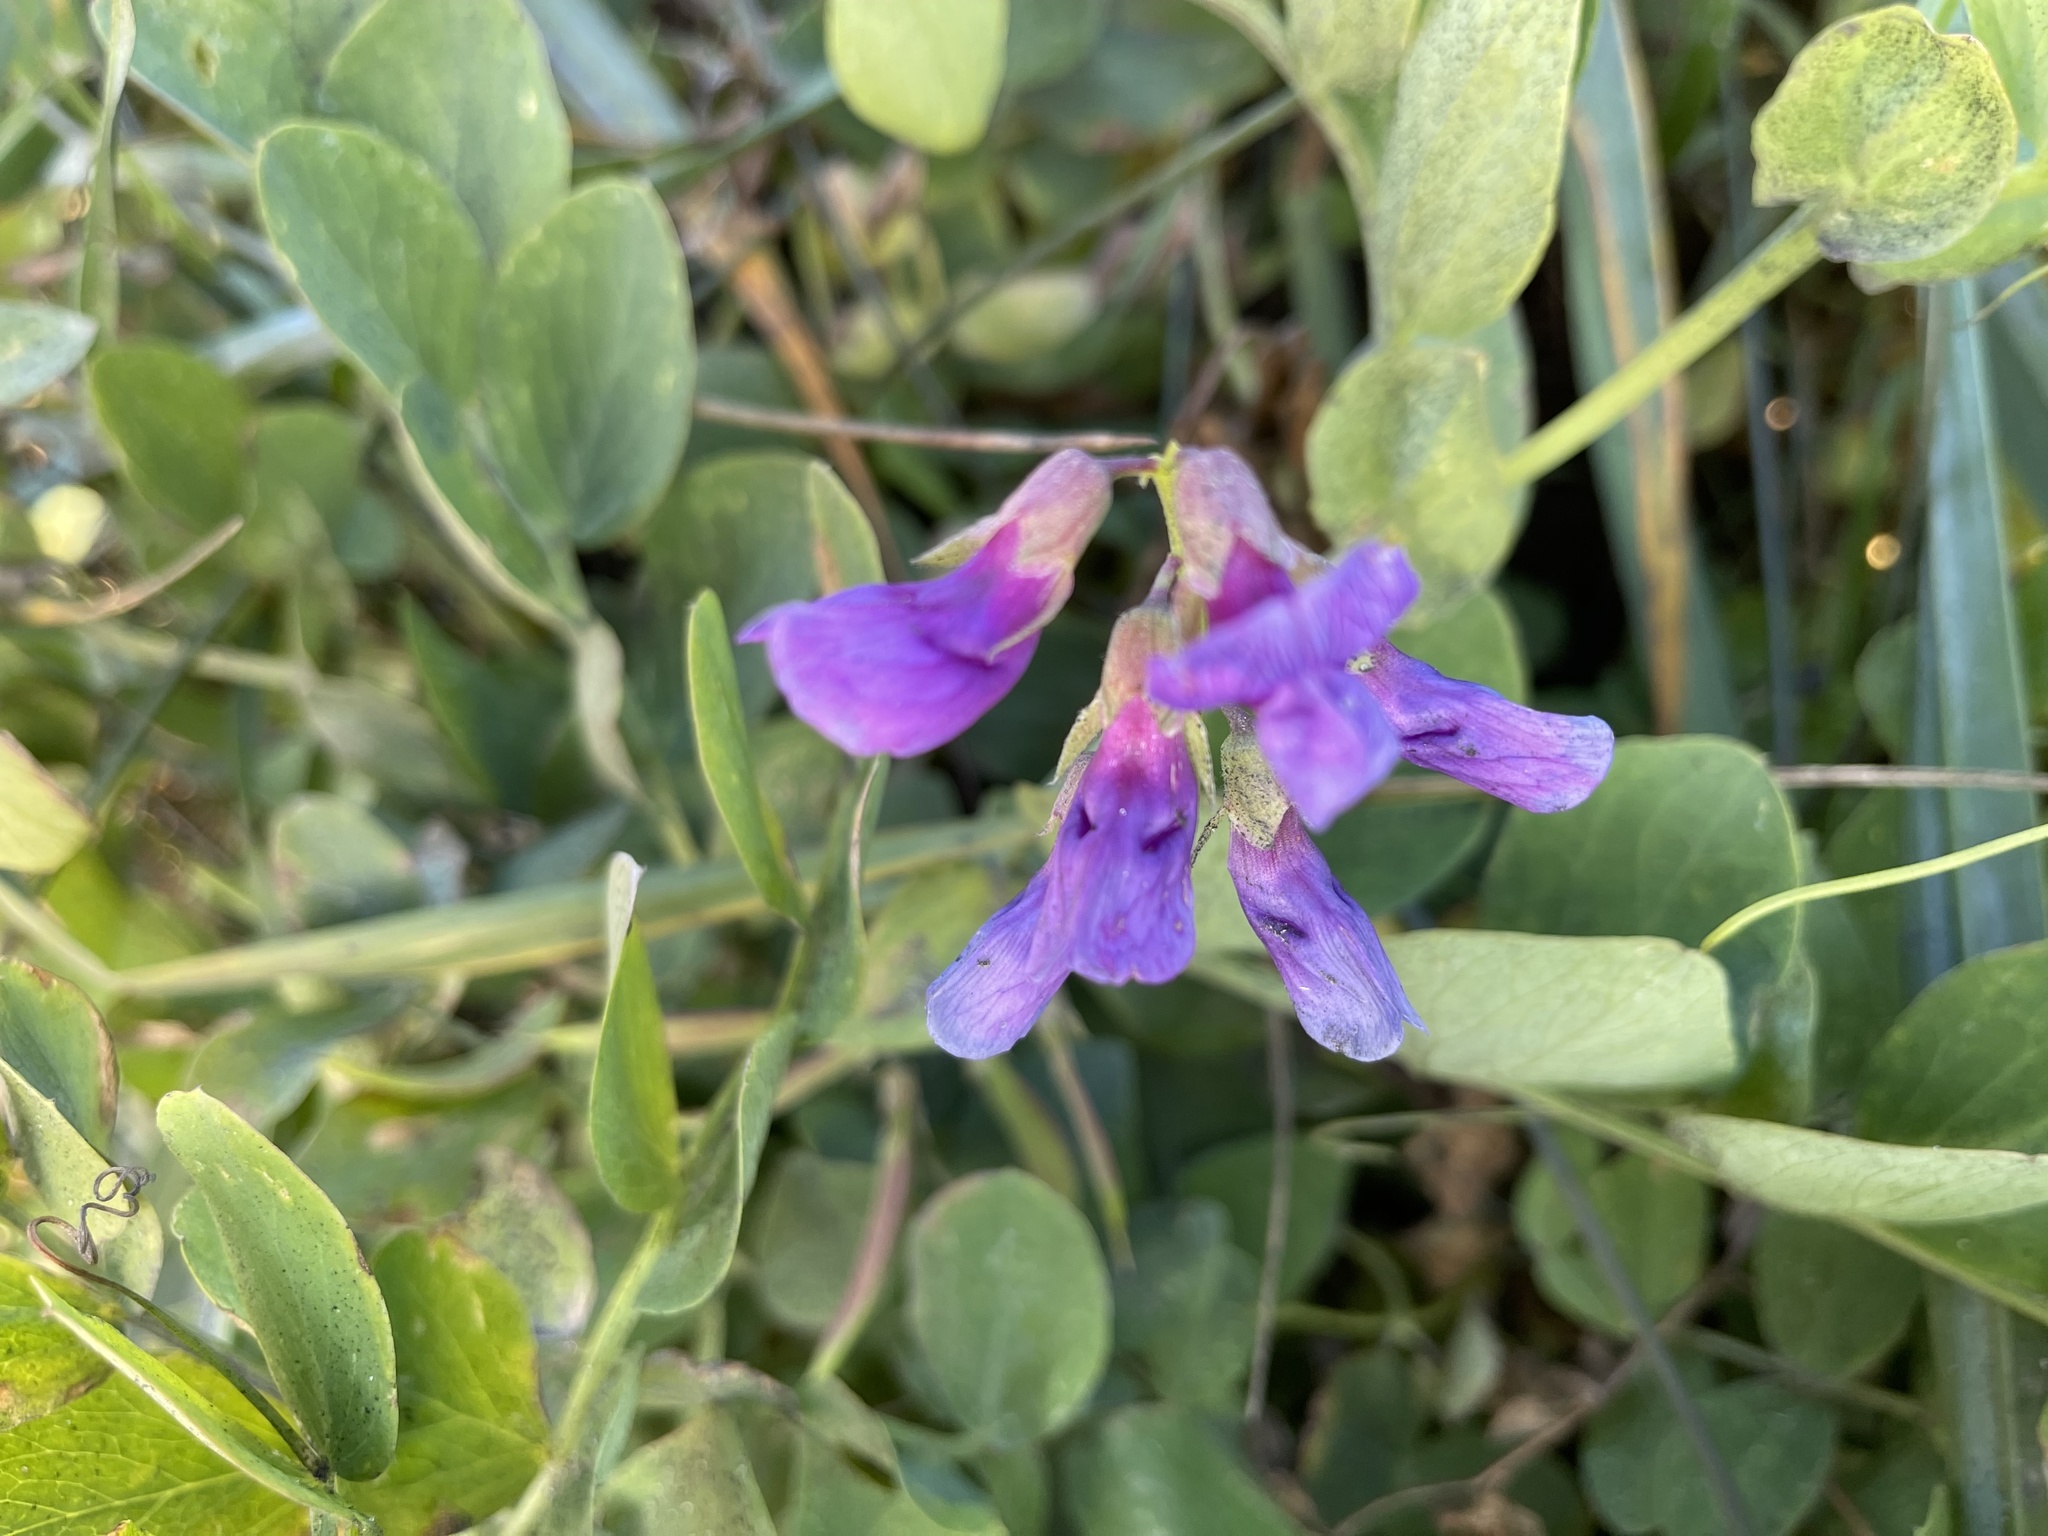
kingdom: Plantae
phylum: Tracheophyta
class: Magnoliopsida
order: Fabales
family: Fabaceae
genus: Lathyrus
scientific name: Lathyrus japonicus
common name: Sea pea
